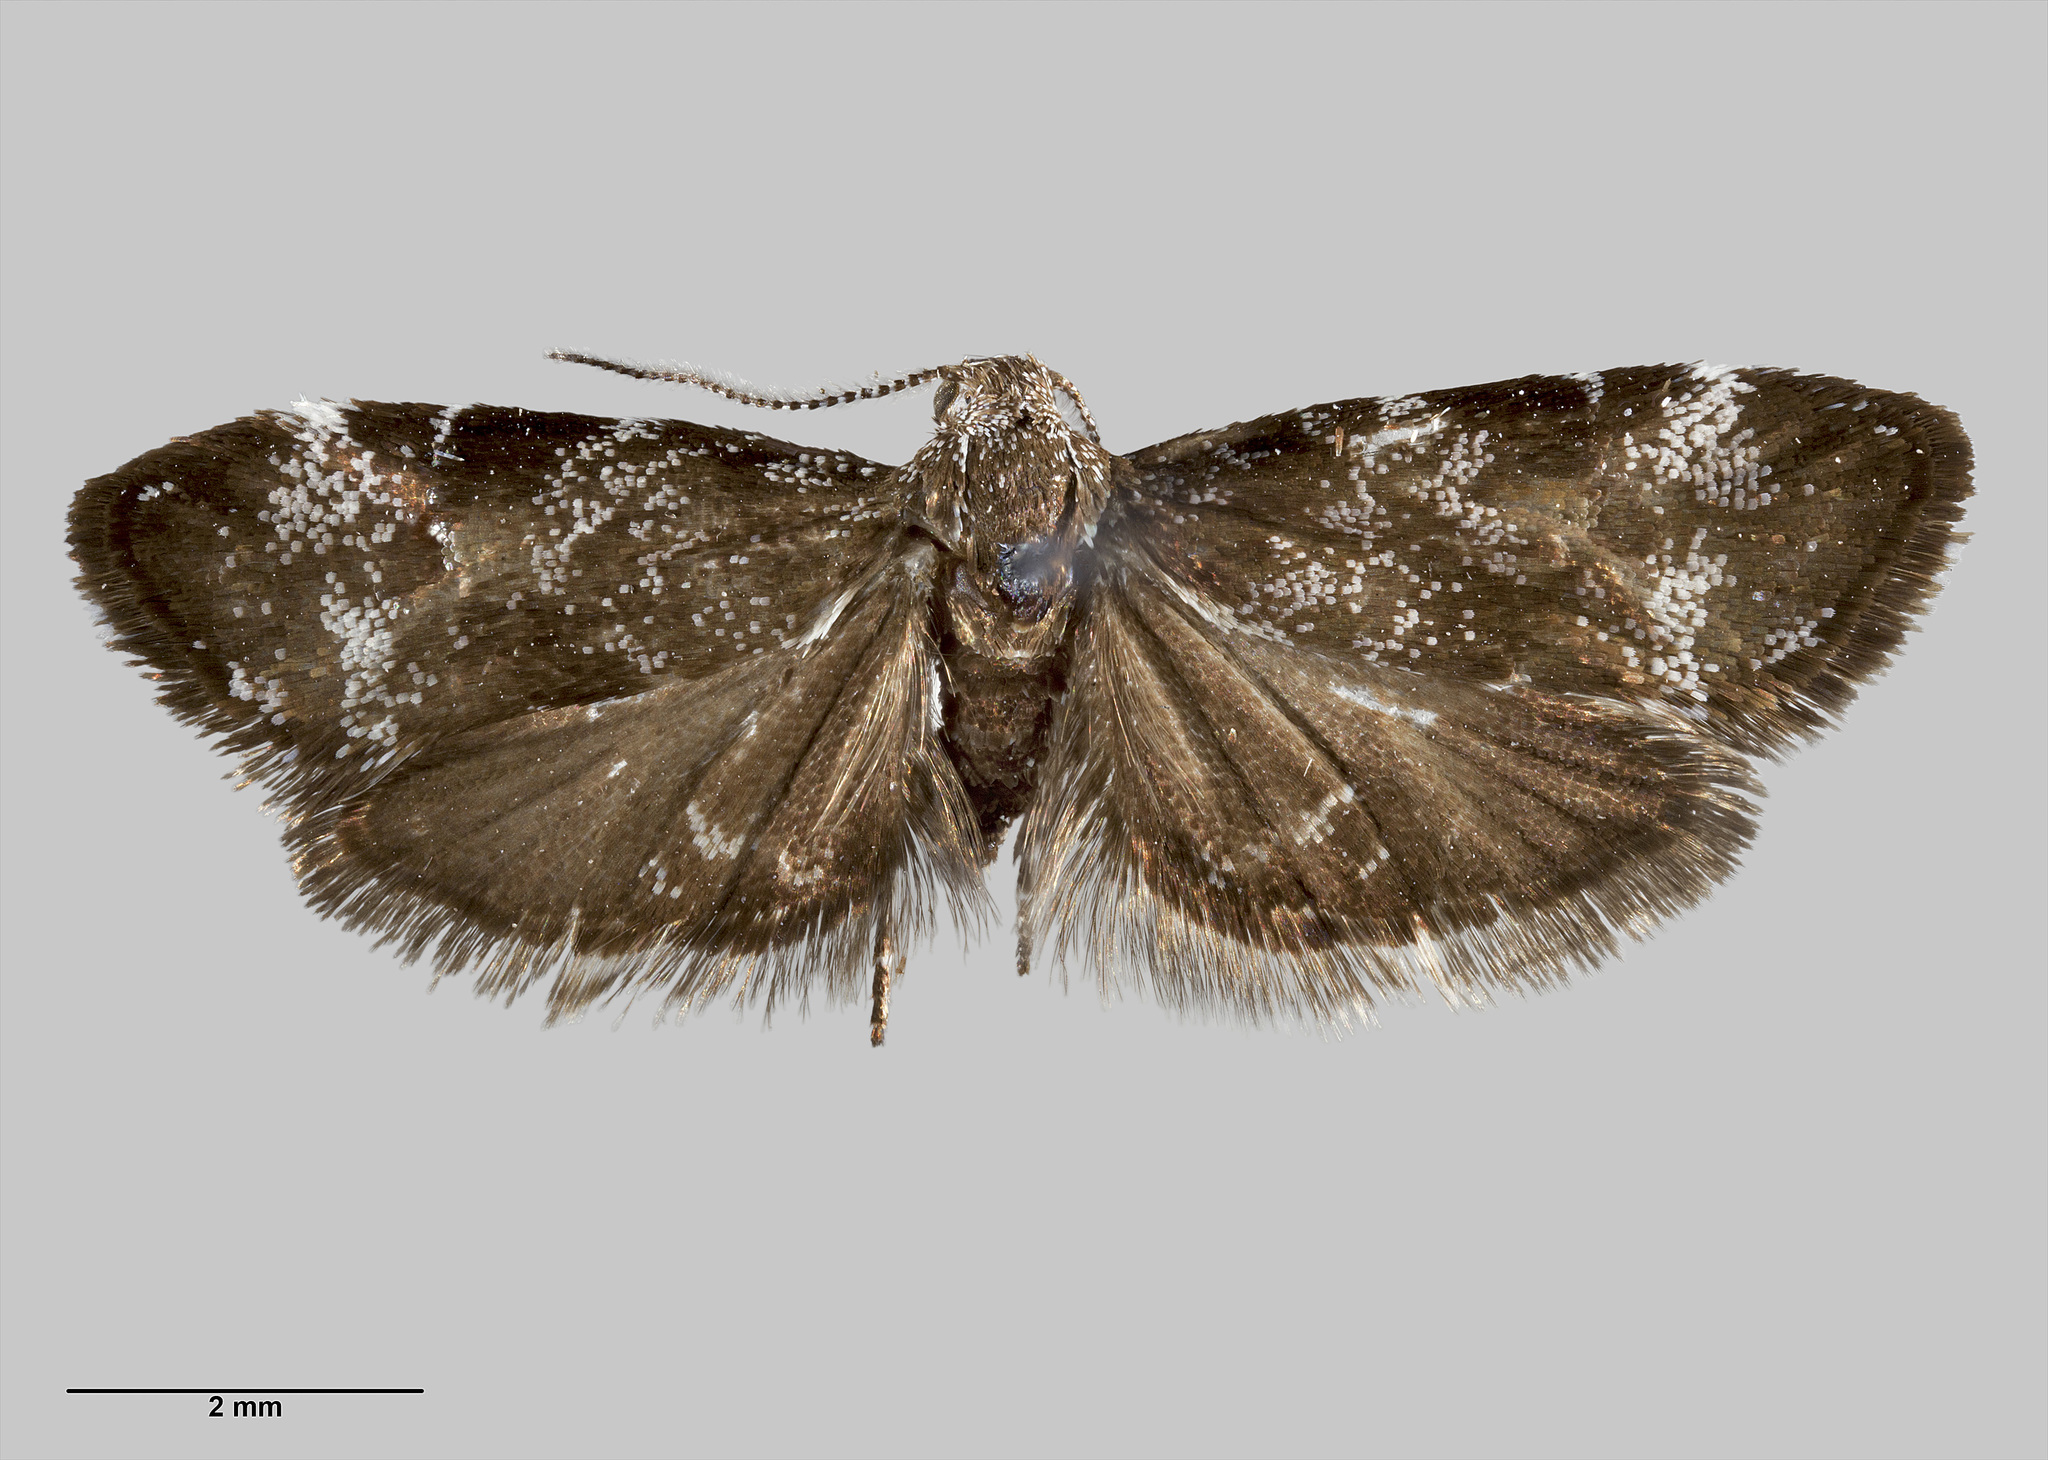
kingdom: Animalia
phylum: Arthropoda
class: Insecta
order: Lepidoptera
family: Choreutidae
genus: Asterivora
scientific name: Asterivora tristis
